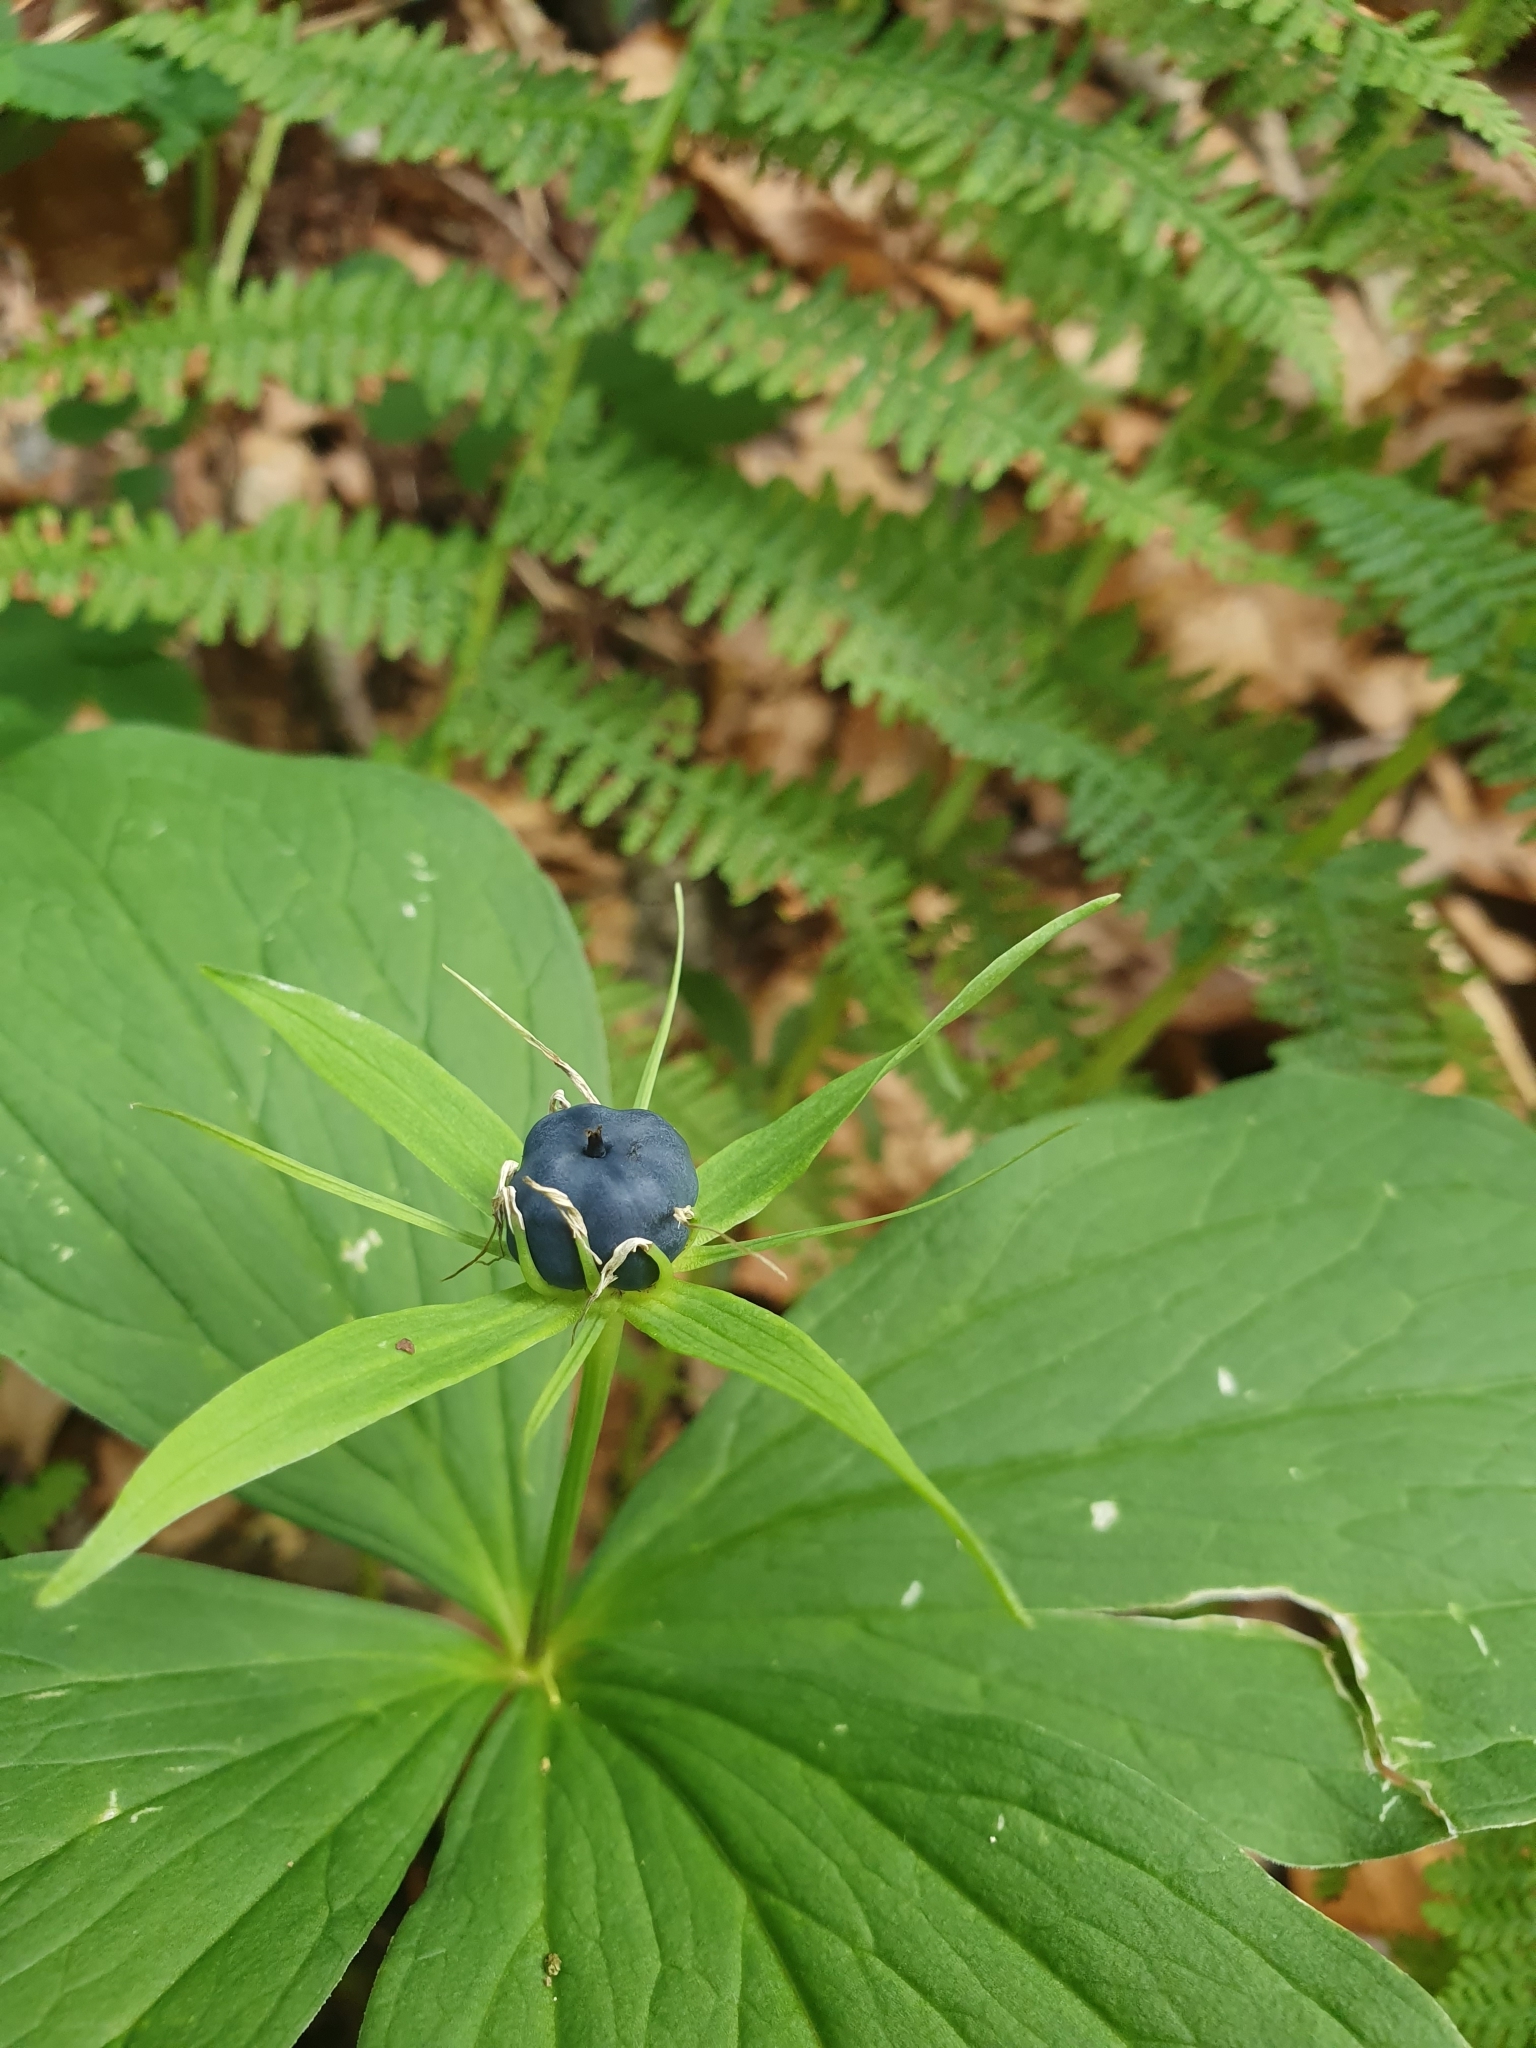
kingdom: Plantae
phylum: Tracheophyta
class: Liliopsida
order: Liliales
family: Melanthiaceae
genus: Paris
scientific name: Paris quadrifolia
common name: Herb-paris
